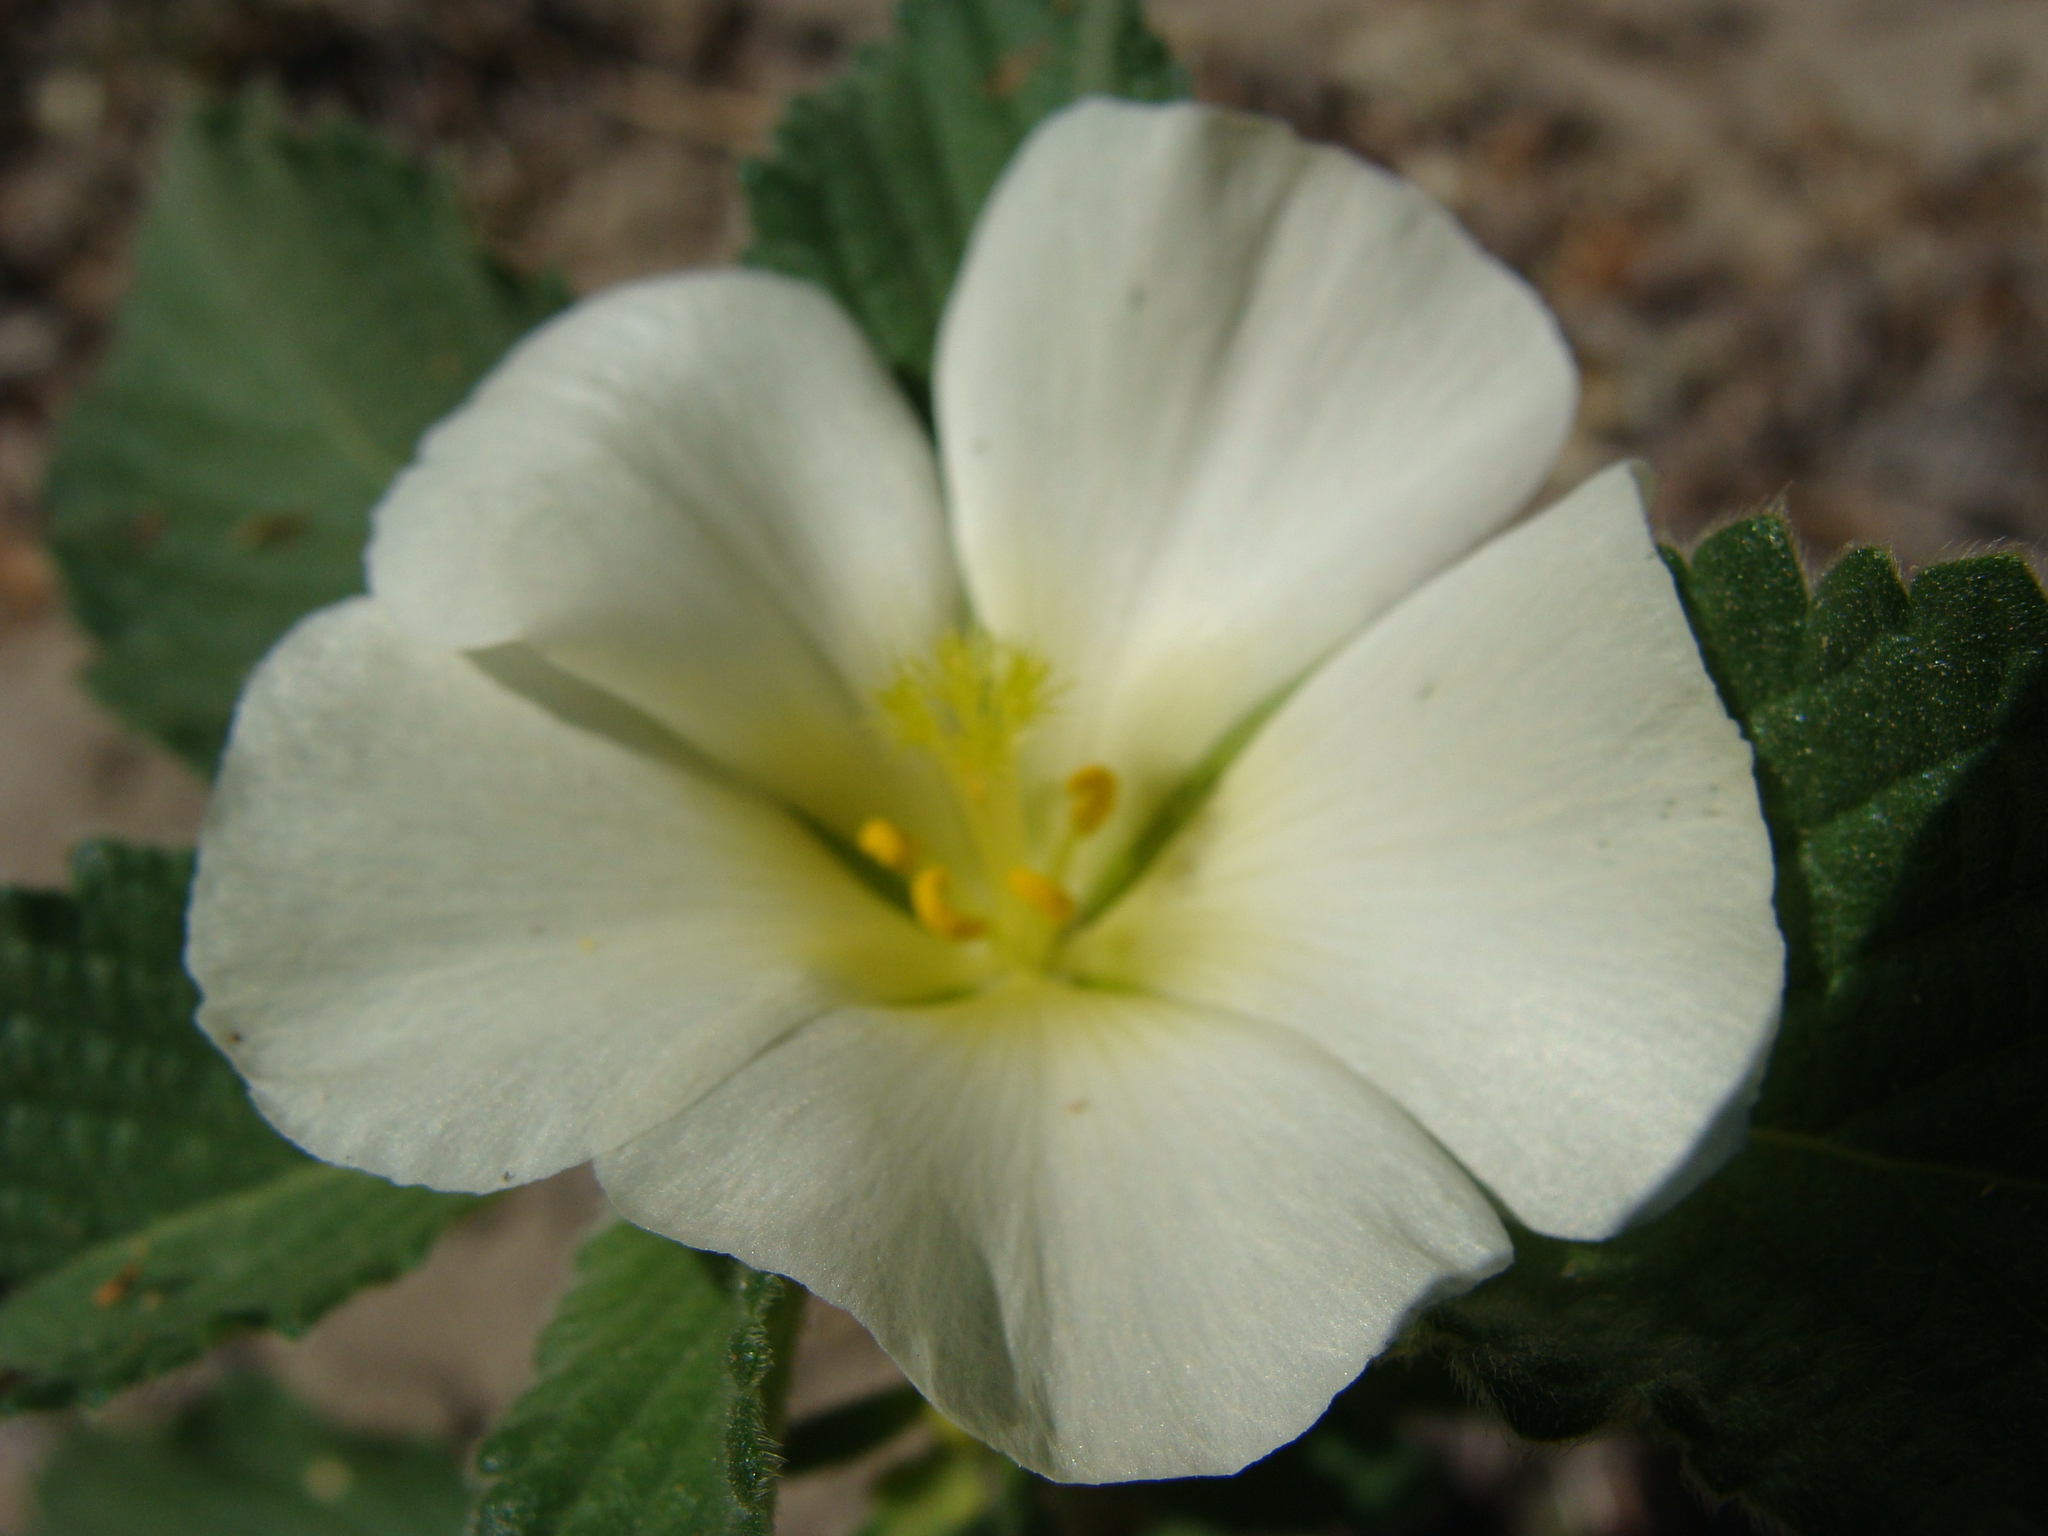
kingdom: Plantae
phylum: Tracheophyta
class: Magnoliopsida
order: Malpighiales
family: Turneraceae
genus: Turnera
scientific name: Turnera velutina
